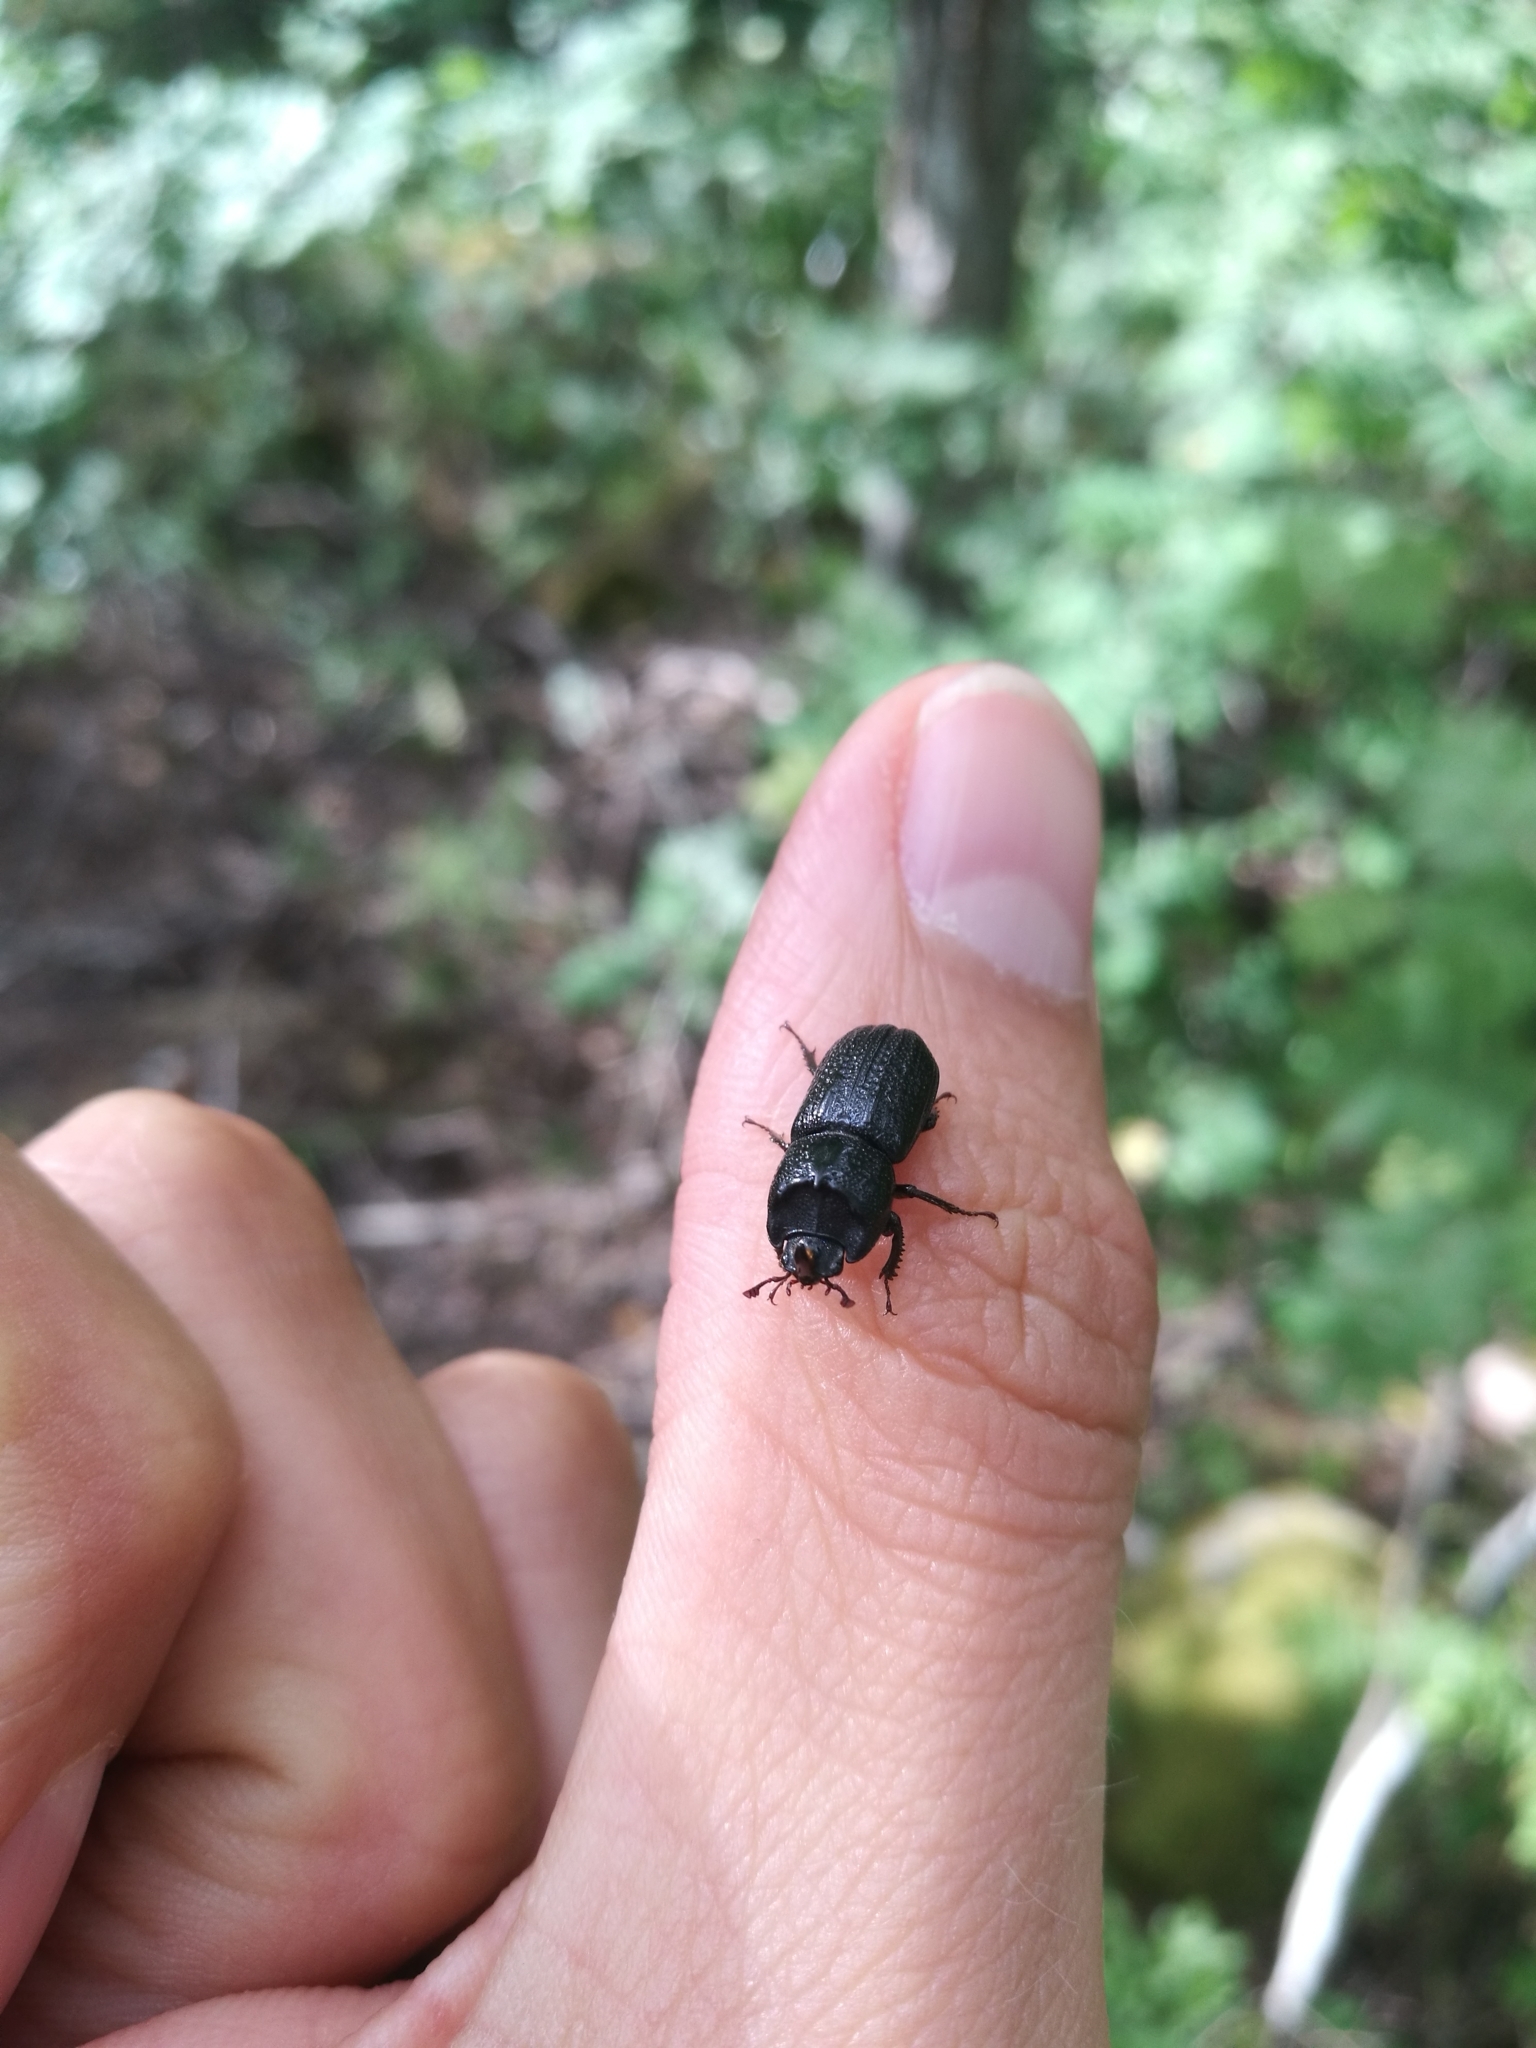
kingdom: Animalia
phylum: Arthropoda
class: Insecta
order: Coleoptera
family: Lucanidae
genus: Sinodendron
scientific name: Sinodendron cylindricum
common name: Rhinoceros beetle
